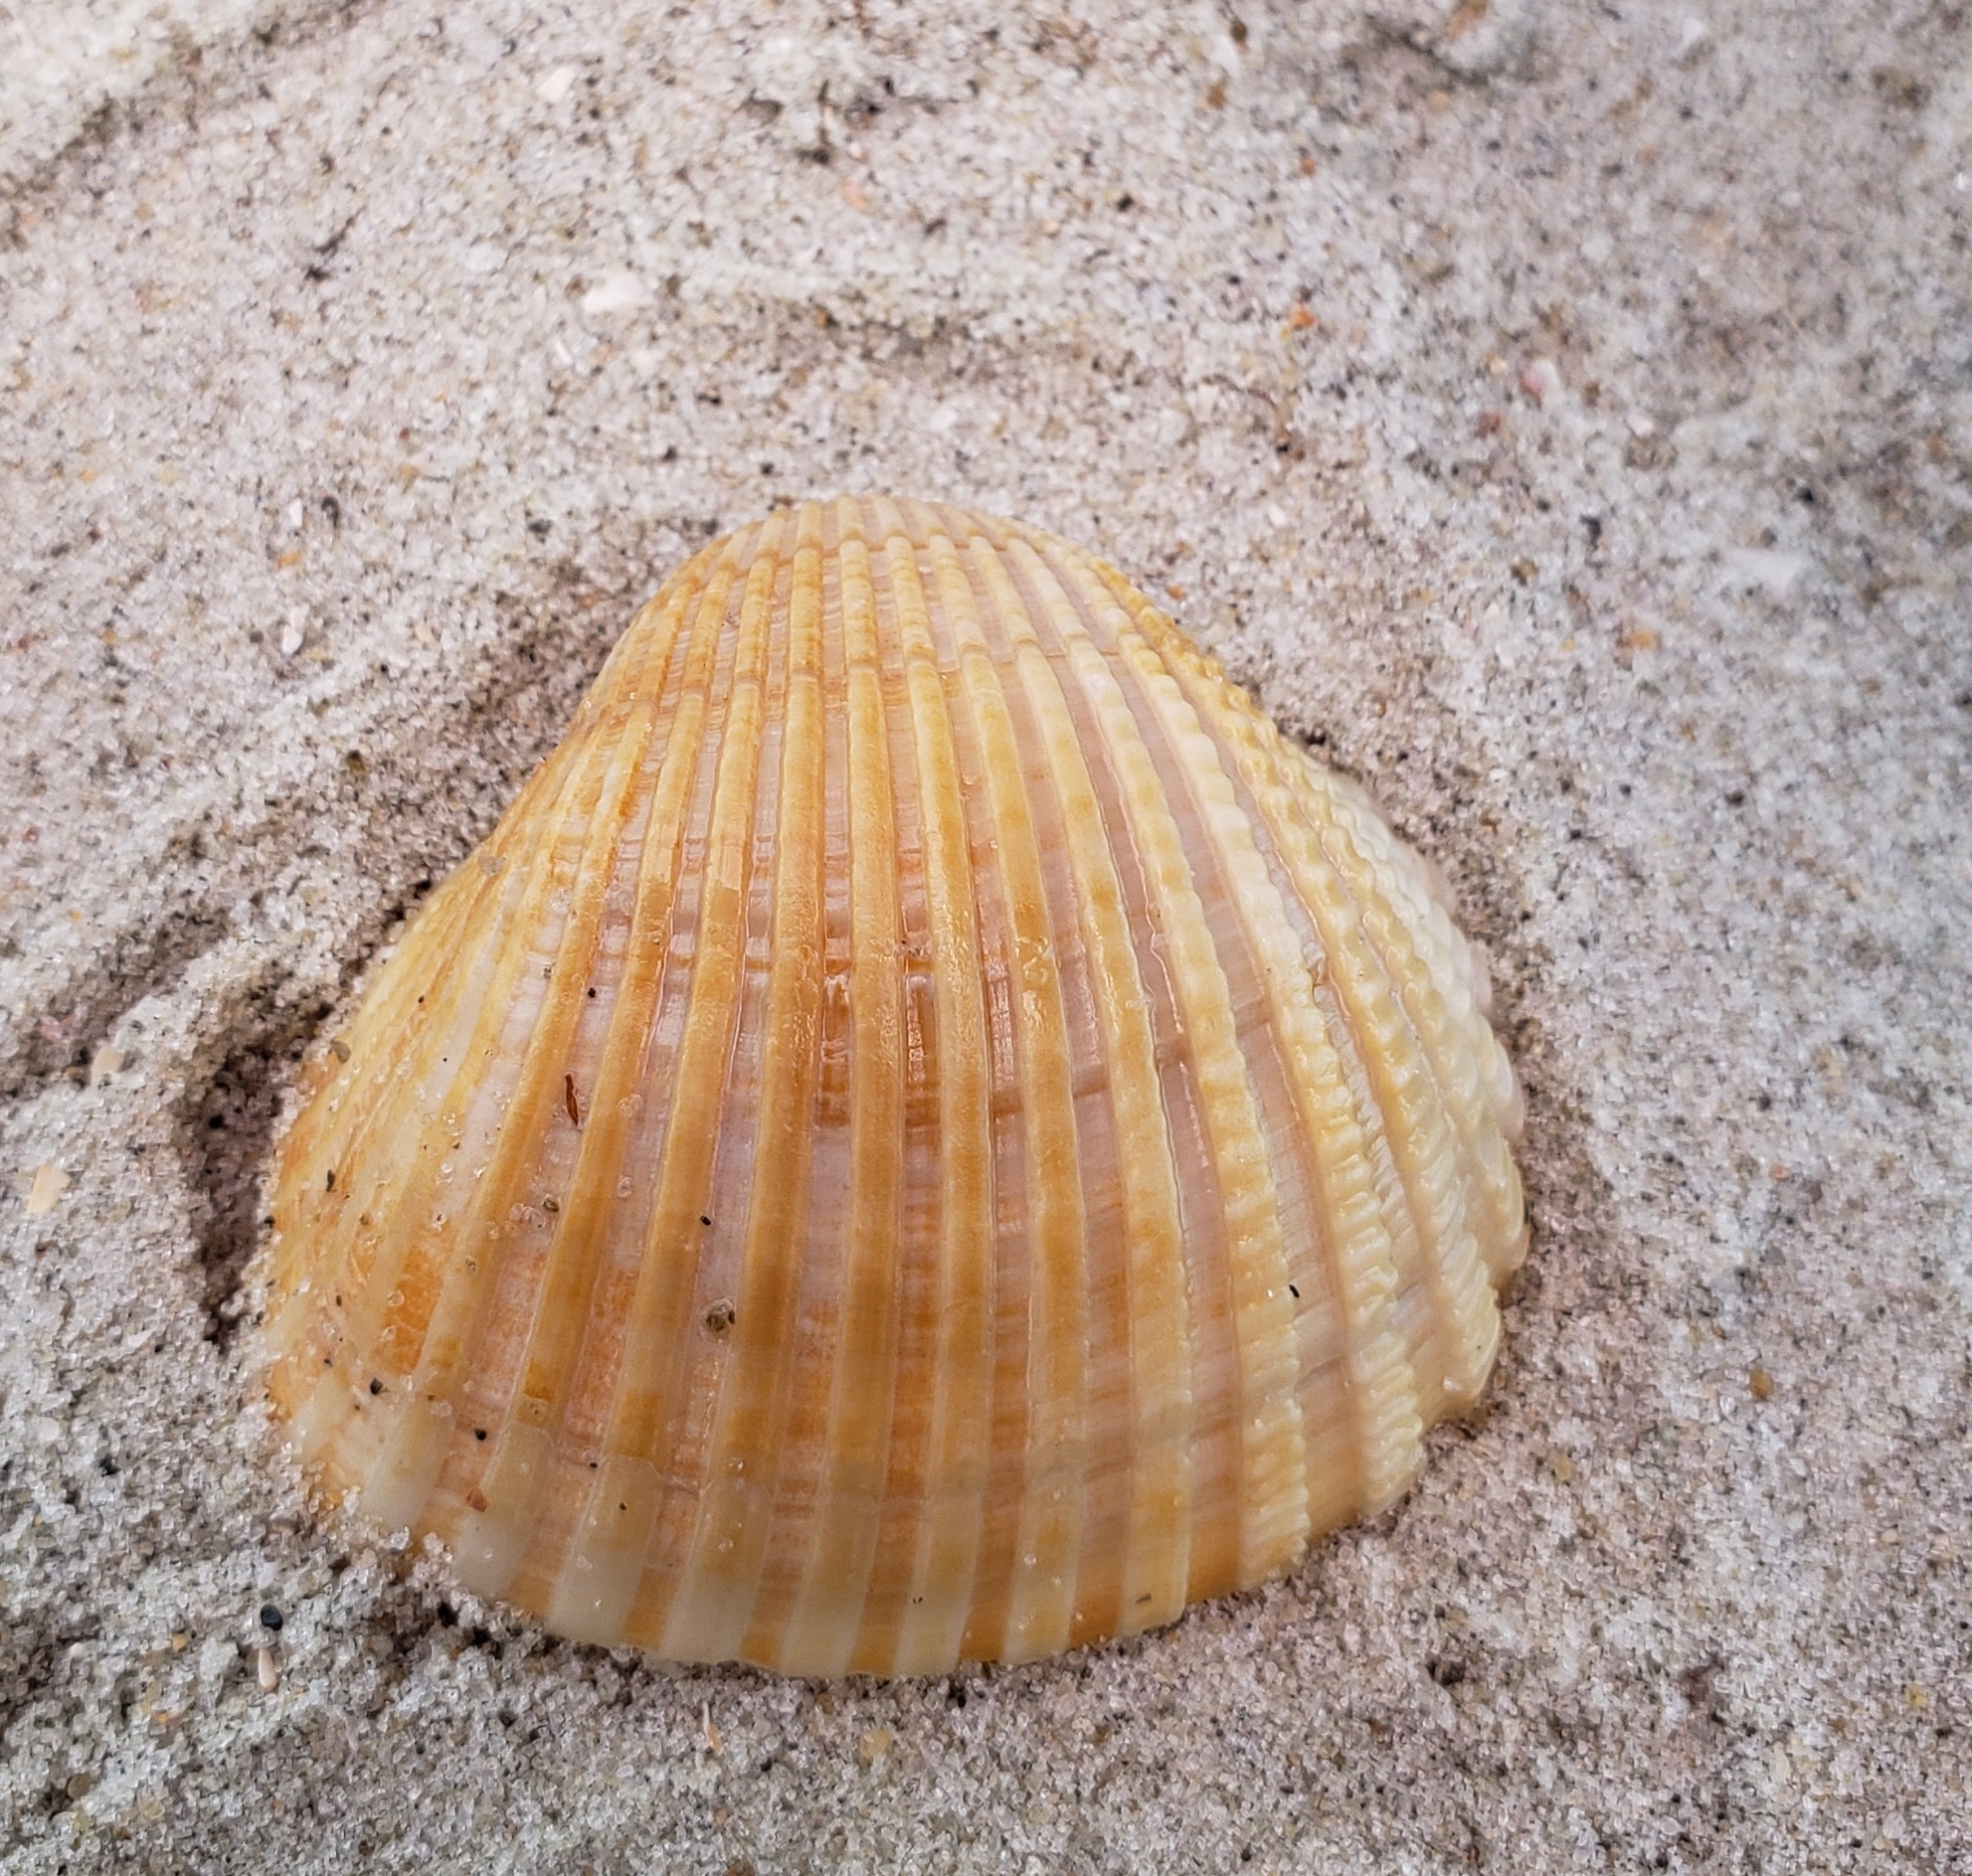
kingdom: Animalia
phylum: Mollusca
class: Bivalvia
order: Arcida
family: Arcidae
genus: Anadara
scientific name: Anadara brasiliana
